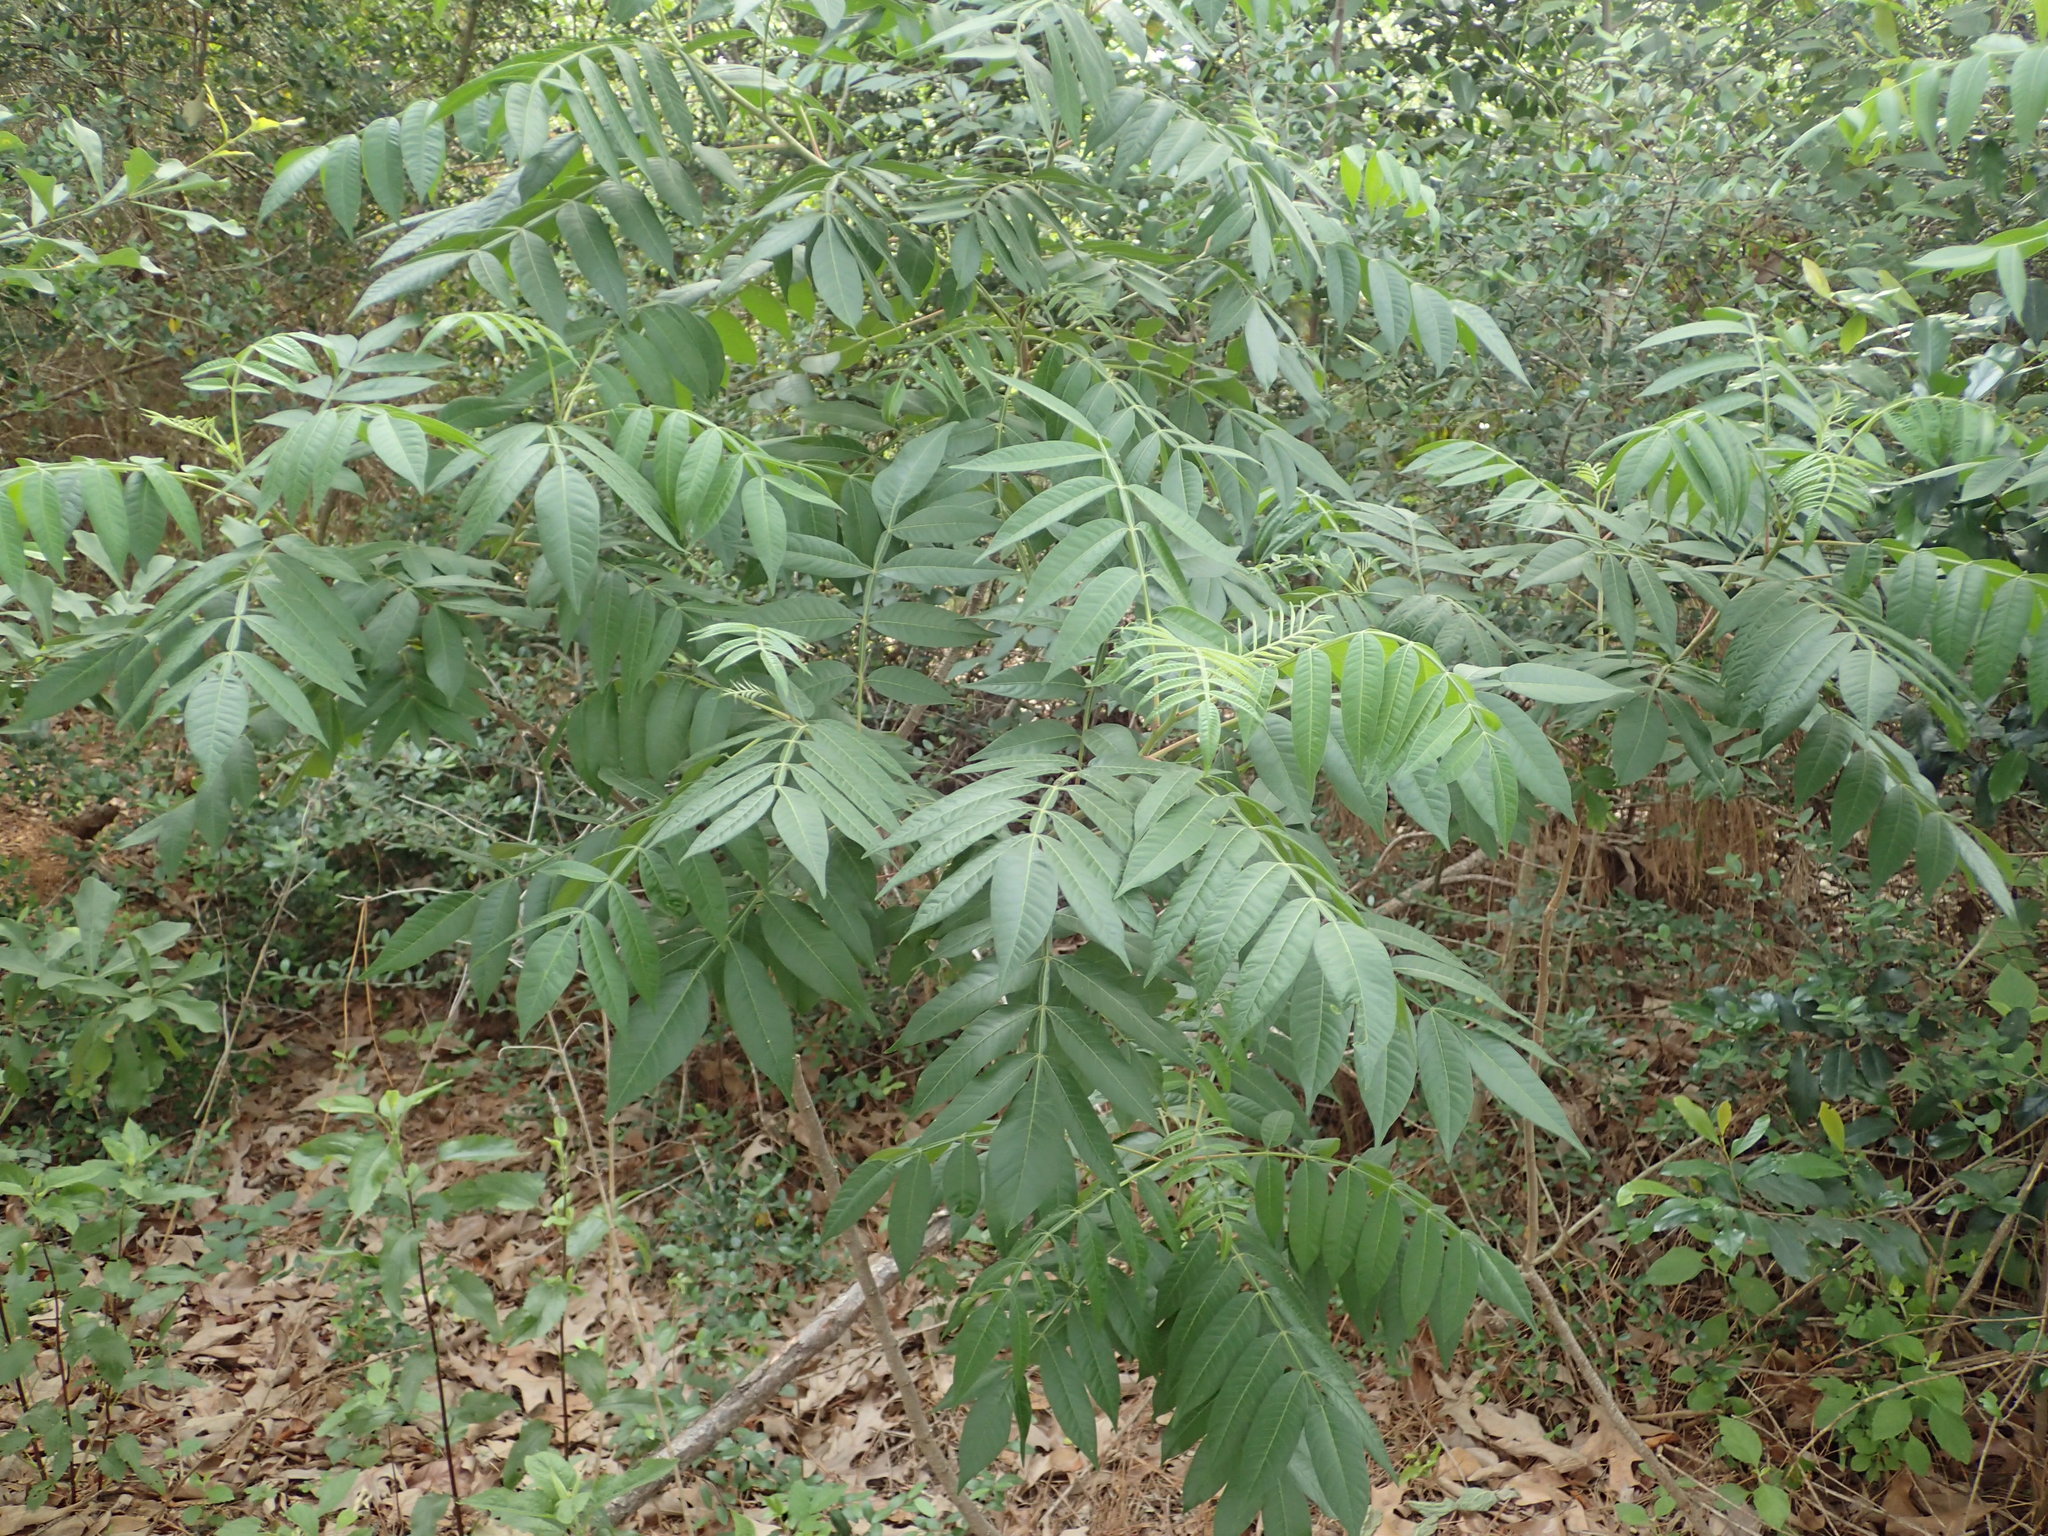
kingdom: Plantae
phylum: Tracheophyta
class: Magnoliopsida
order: Sapindales
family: Anacardiaceae
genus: Rhus
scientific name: Rhus copallina
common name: Shining sumac
